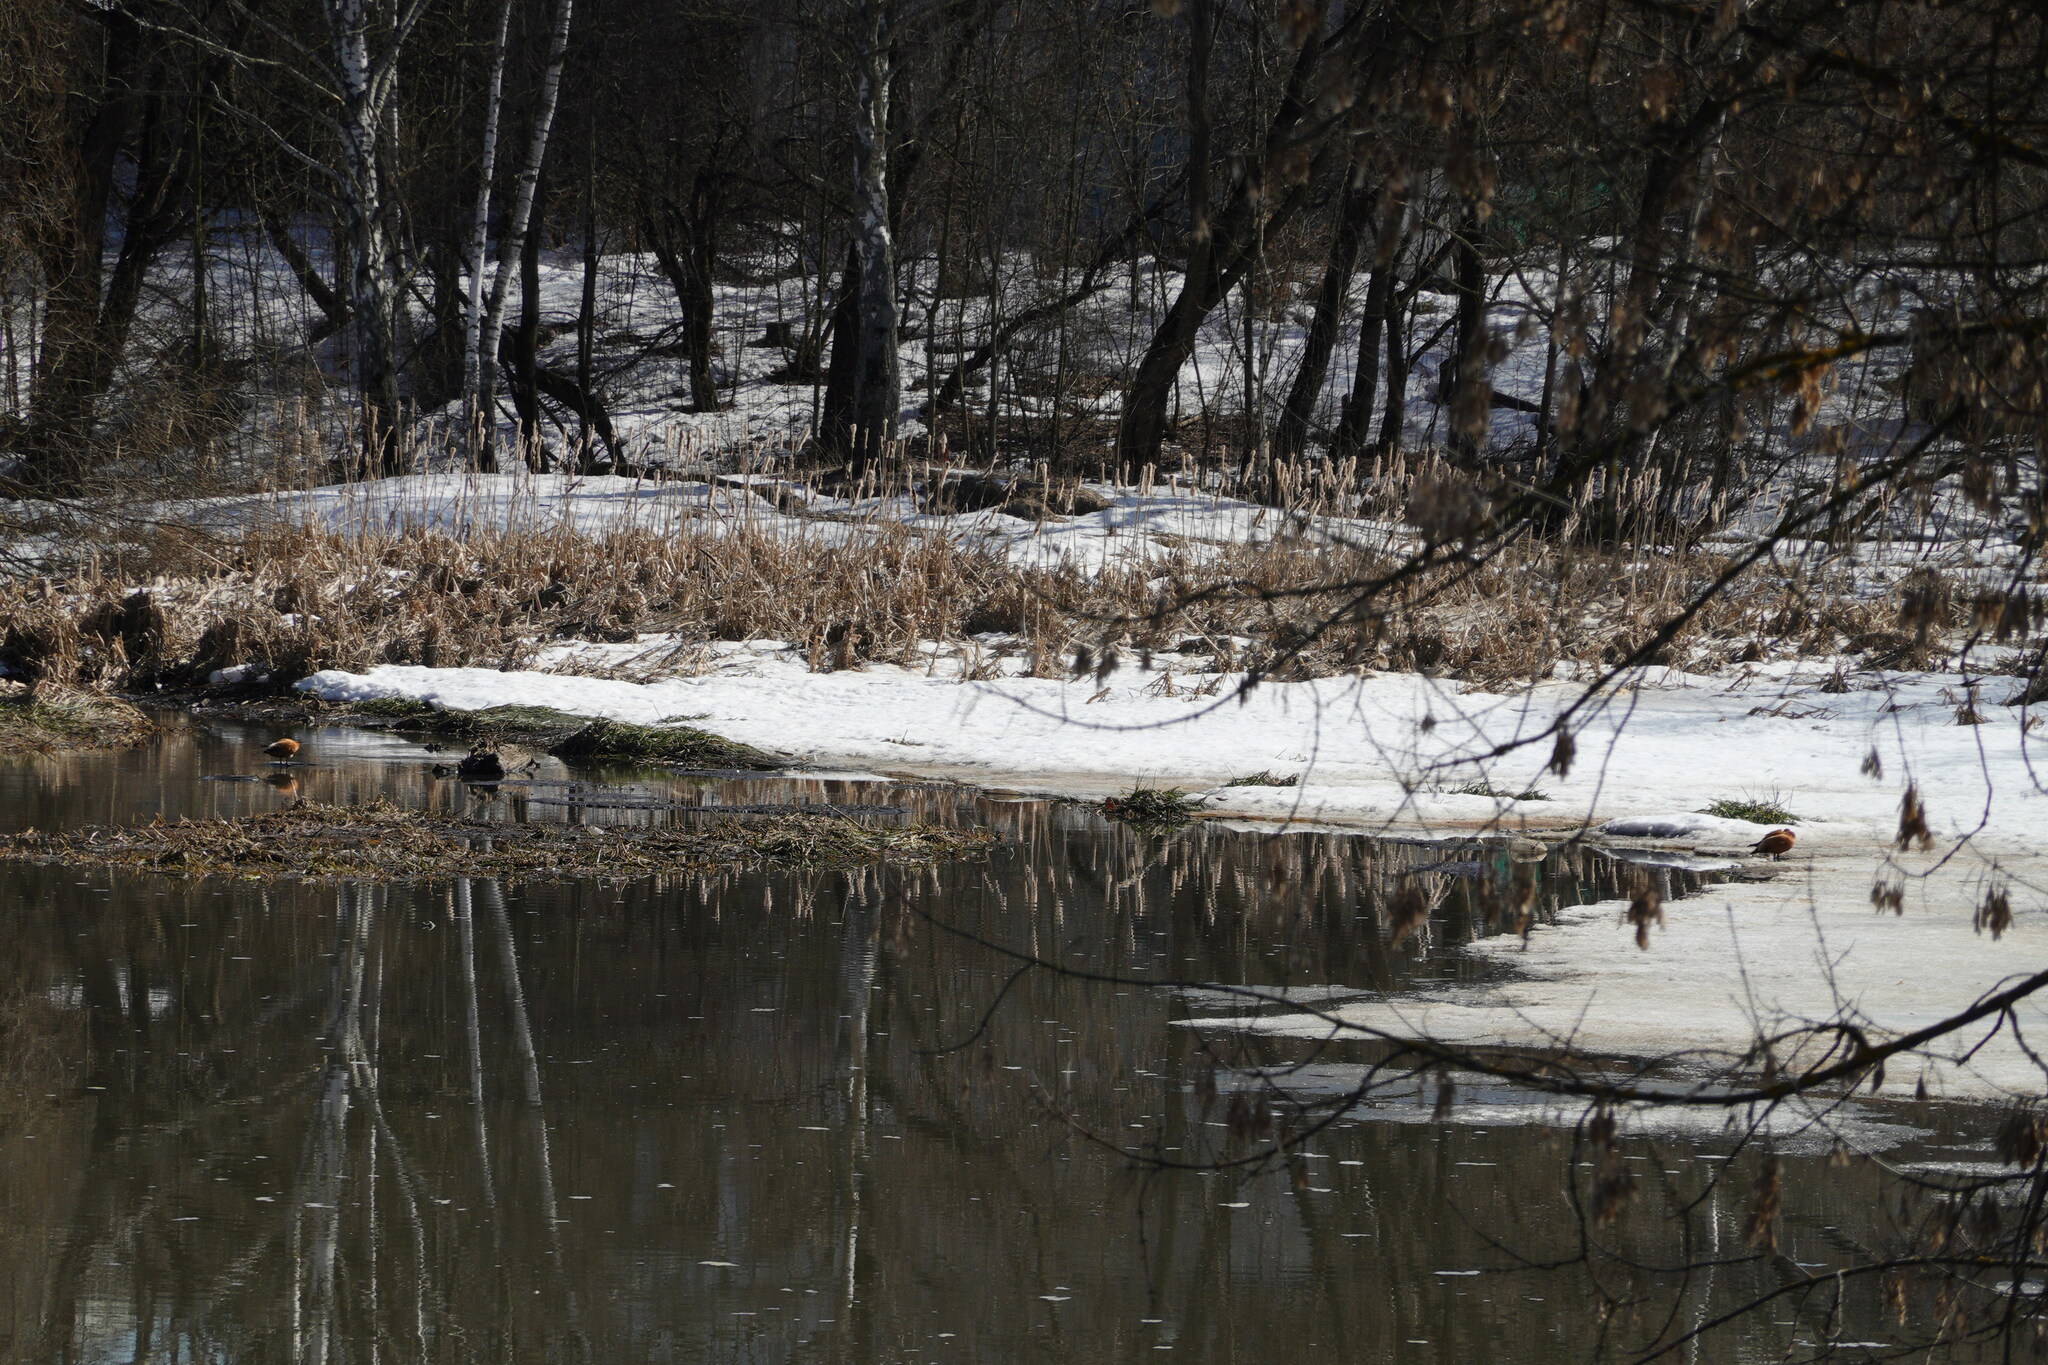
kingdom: Animalia
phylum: Chordata
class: Aves
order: Anseriformes
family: Anatidae
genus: Tadorna
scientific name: Tadorna ferruginea
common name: Ruddy shelduck
